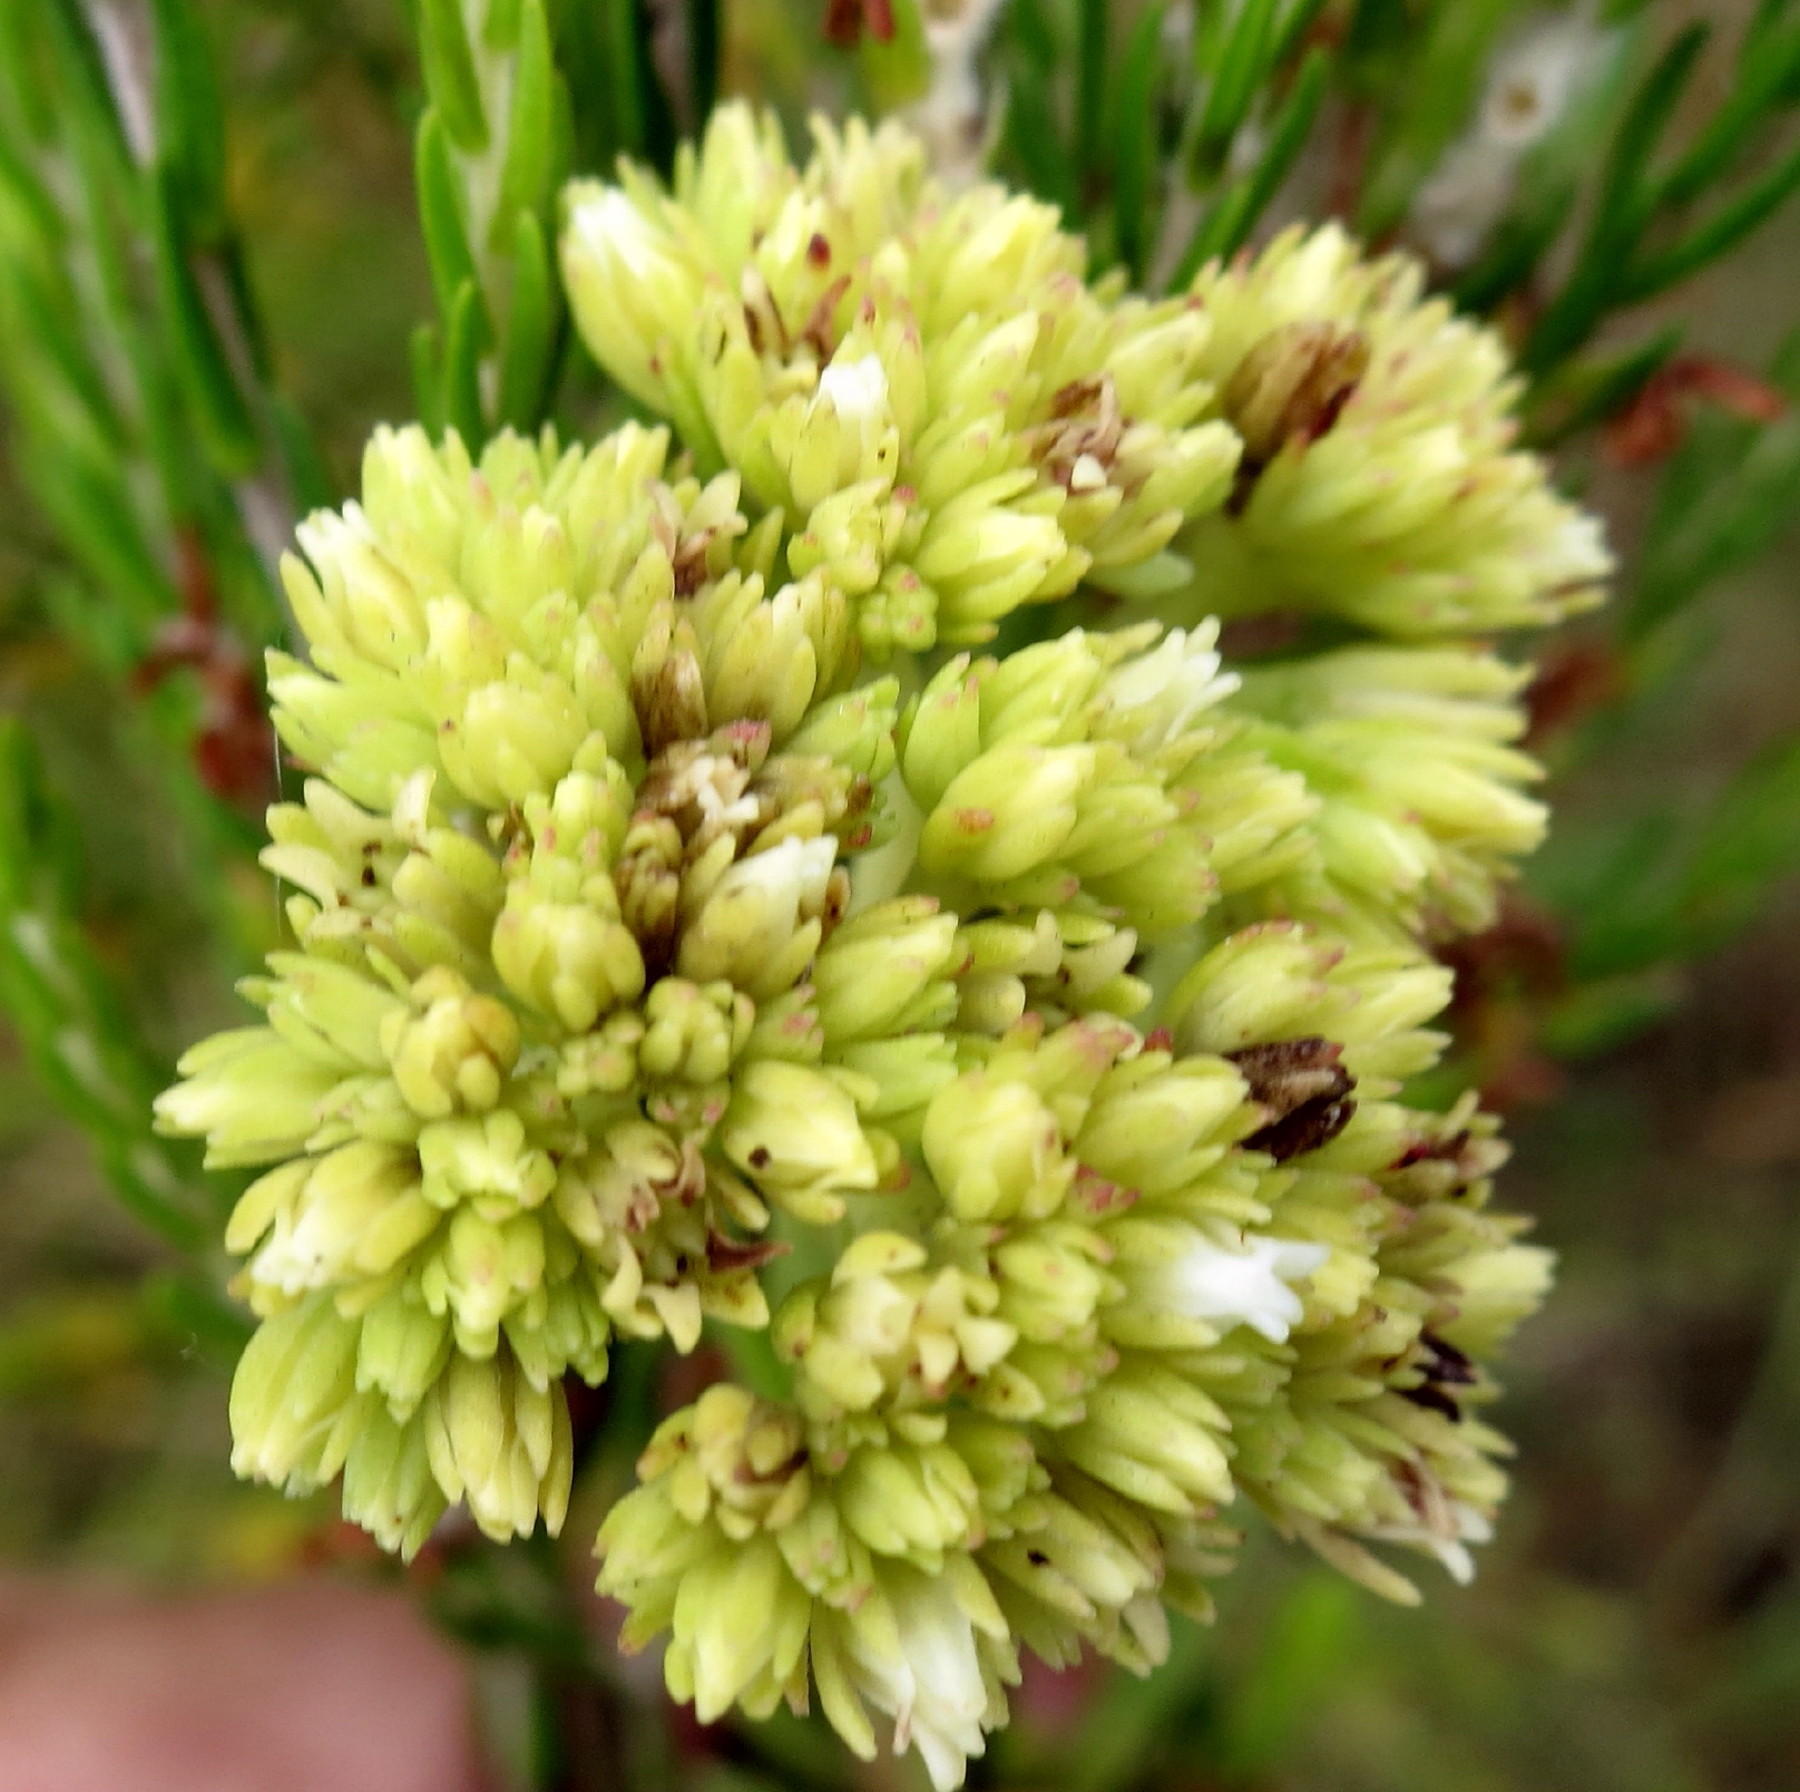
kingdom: Plantae
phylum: Tracheophyta
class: Magnoliopsida
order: Saxifragales
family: Crassulaceae
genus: Crassula
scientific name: Crassula subulata
